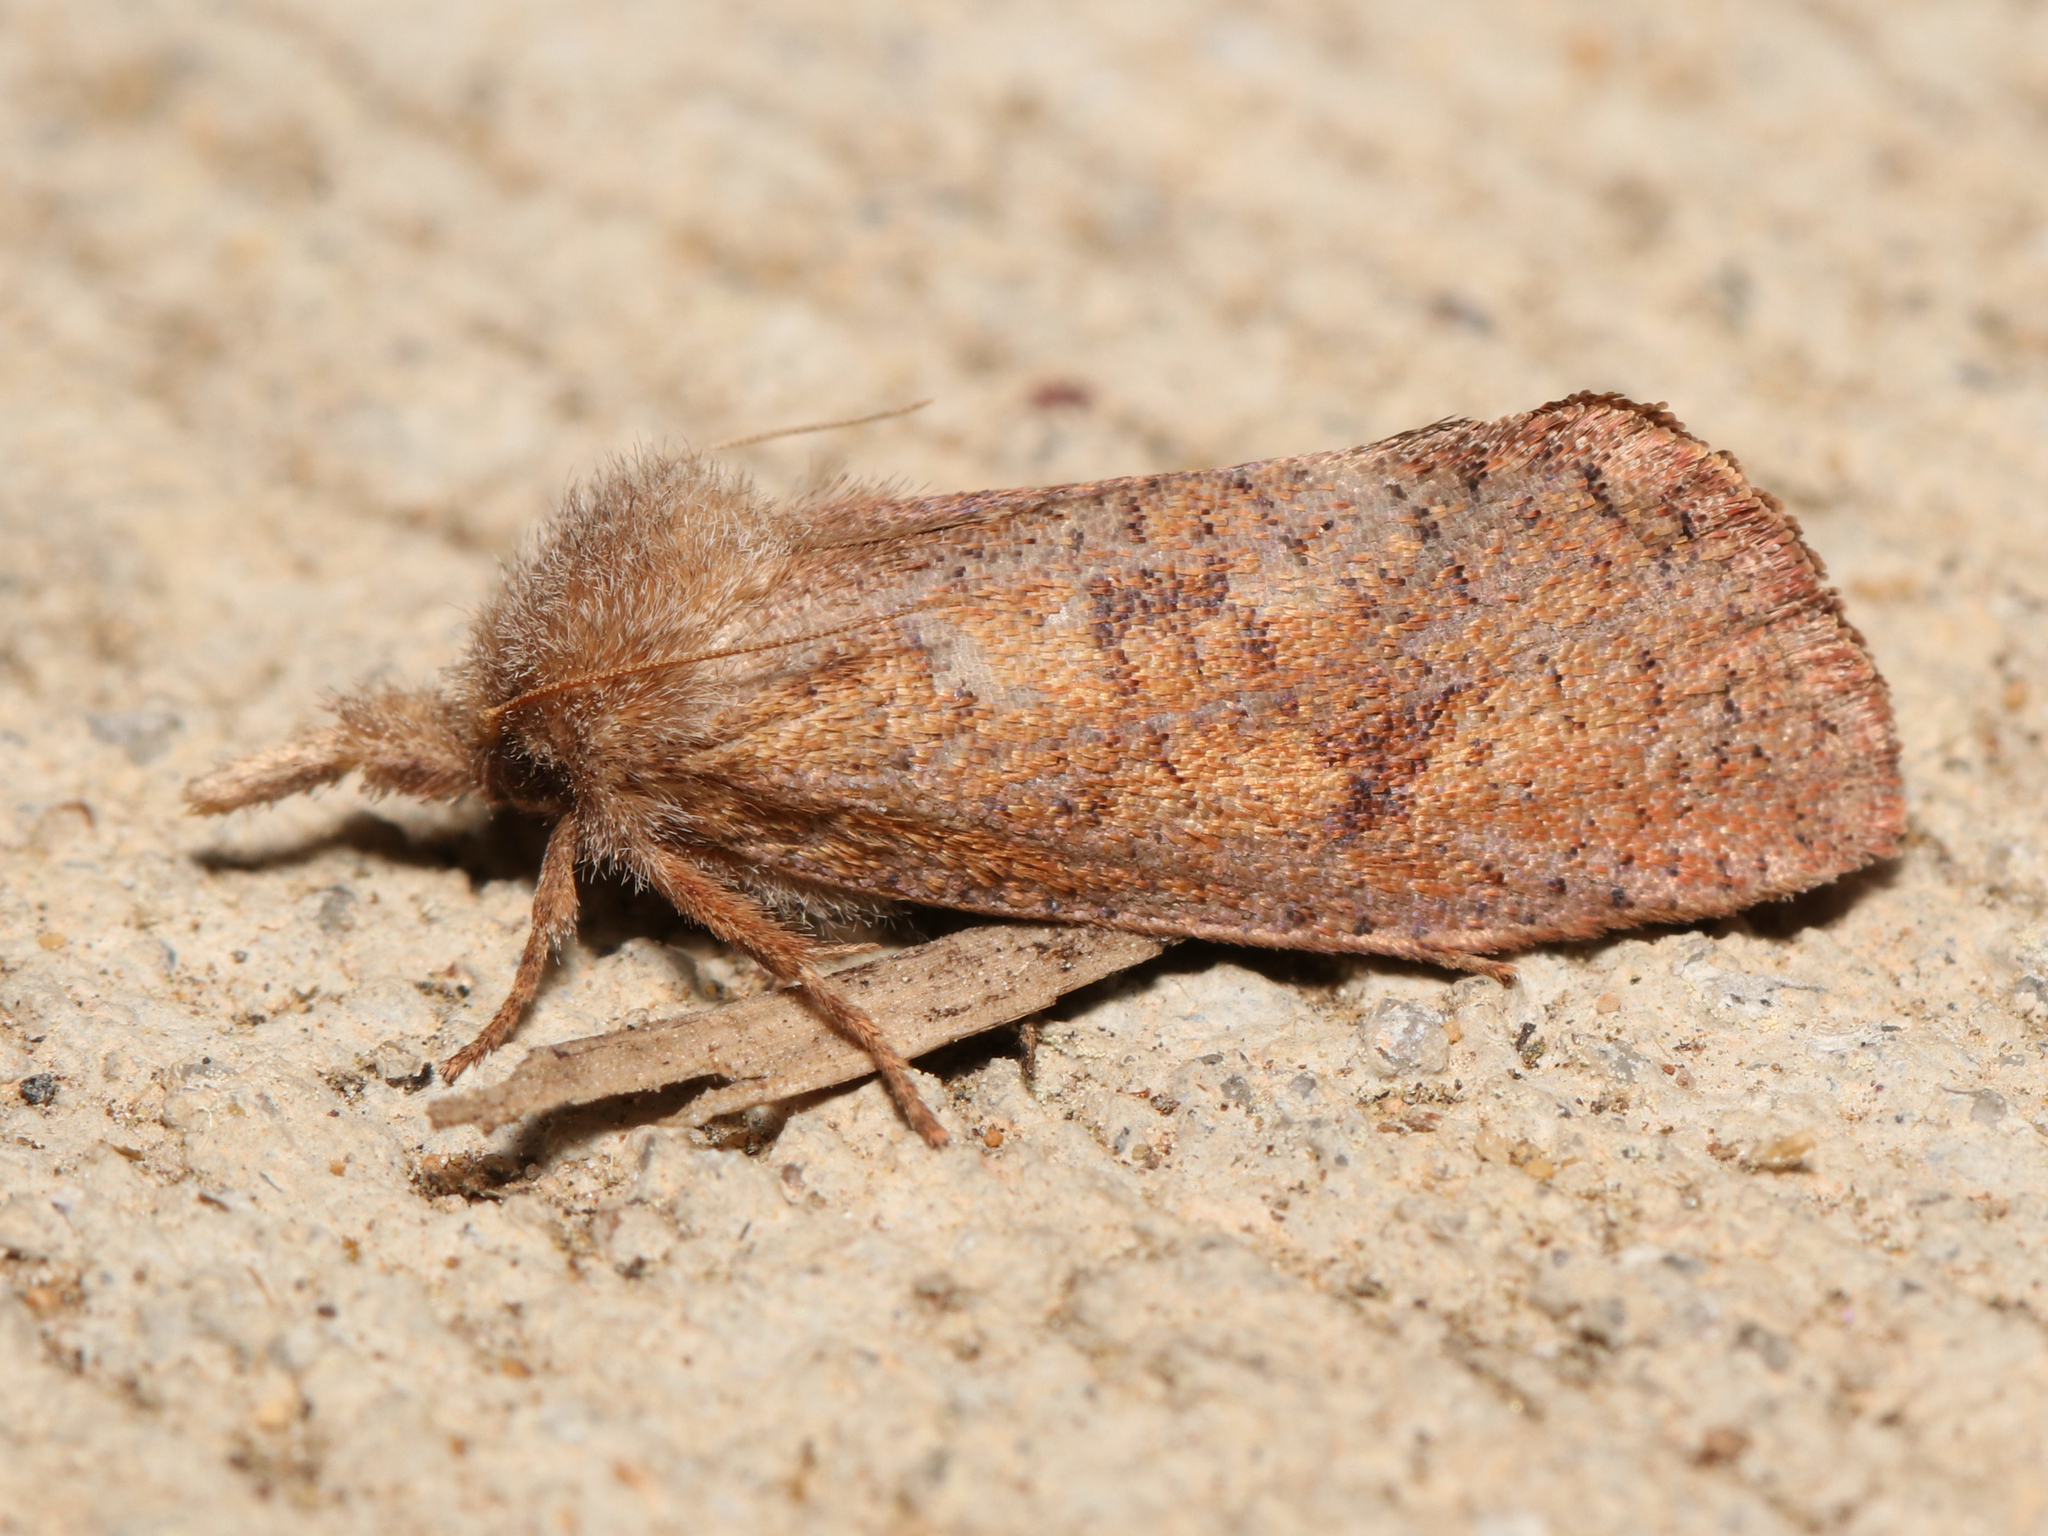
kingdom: Animalia
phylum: Arthropoda
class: Insecta
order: Lepidoptera
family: Tineidae
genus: Acrolophus
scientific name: Acrolophus plumifrontella
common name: Eastern grass tubeworm moth
